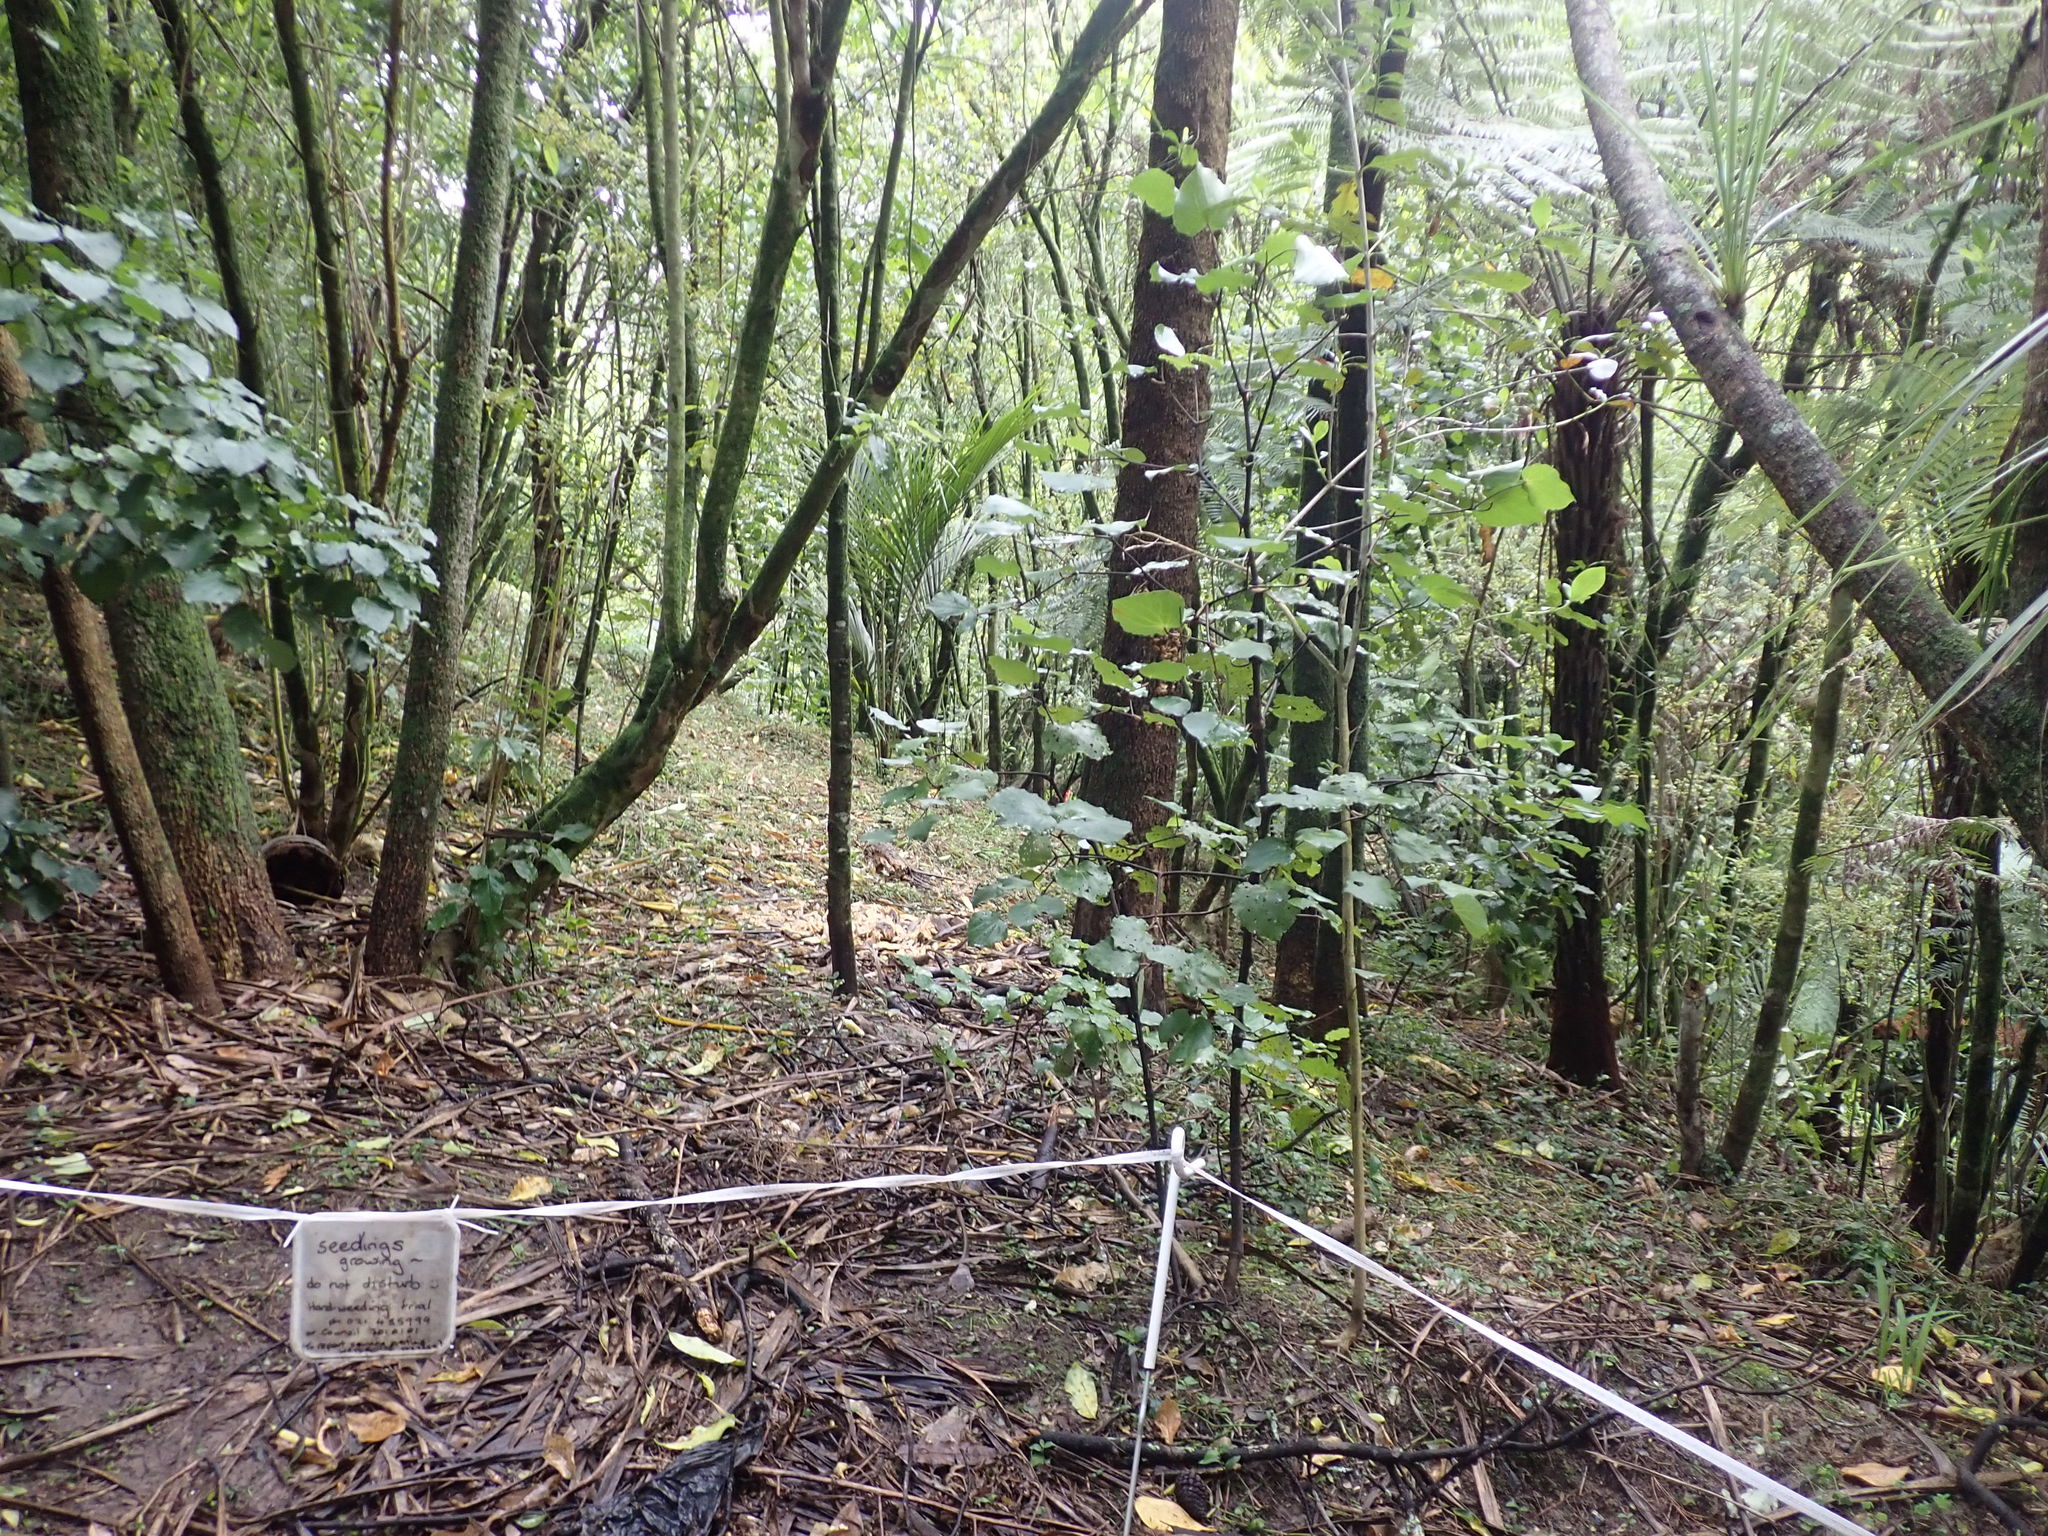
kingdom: Plantae
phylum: Tracheophyta
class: Magnoliopsida
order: Piperales
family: Piperaceae
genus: Macropiper
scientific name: Macropiper excelsum
